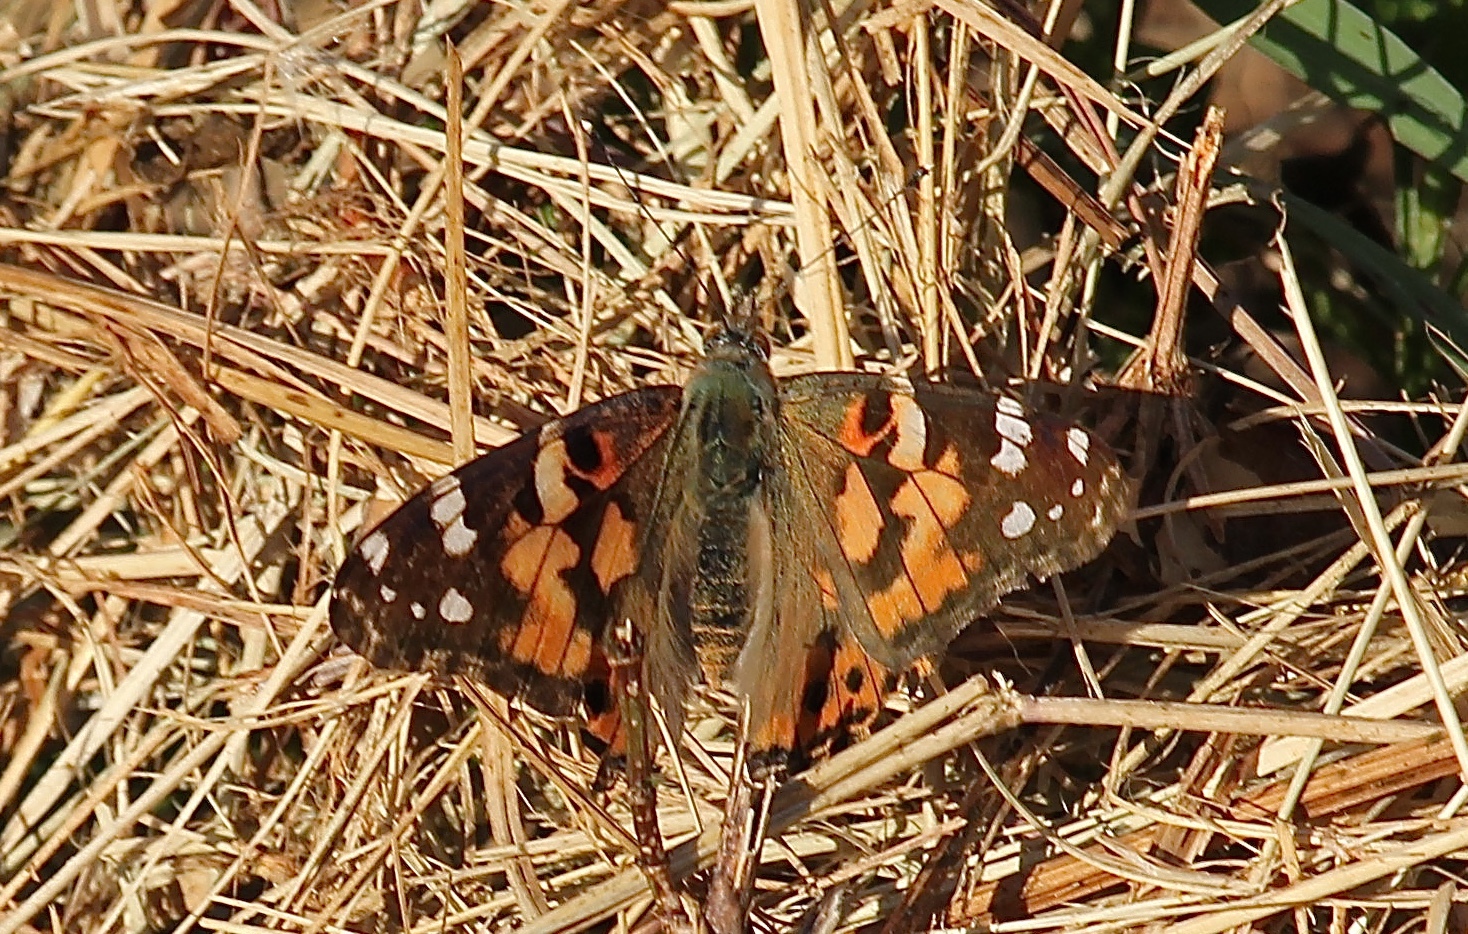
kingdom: Animalia
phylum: Arthropoda
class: Insecta
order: Lepidoptera
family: Nymphalidae
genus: Vanessa
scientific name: Vanessa cardui
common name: Painted lady
